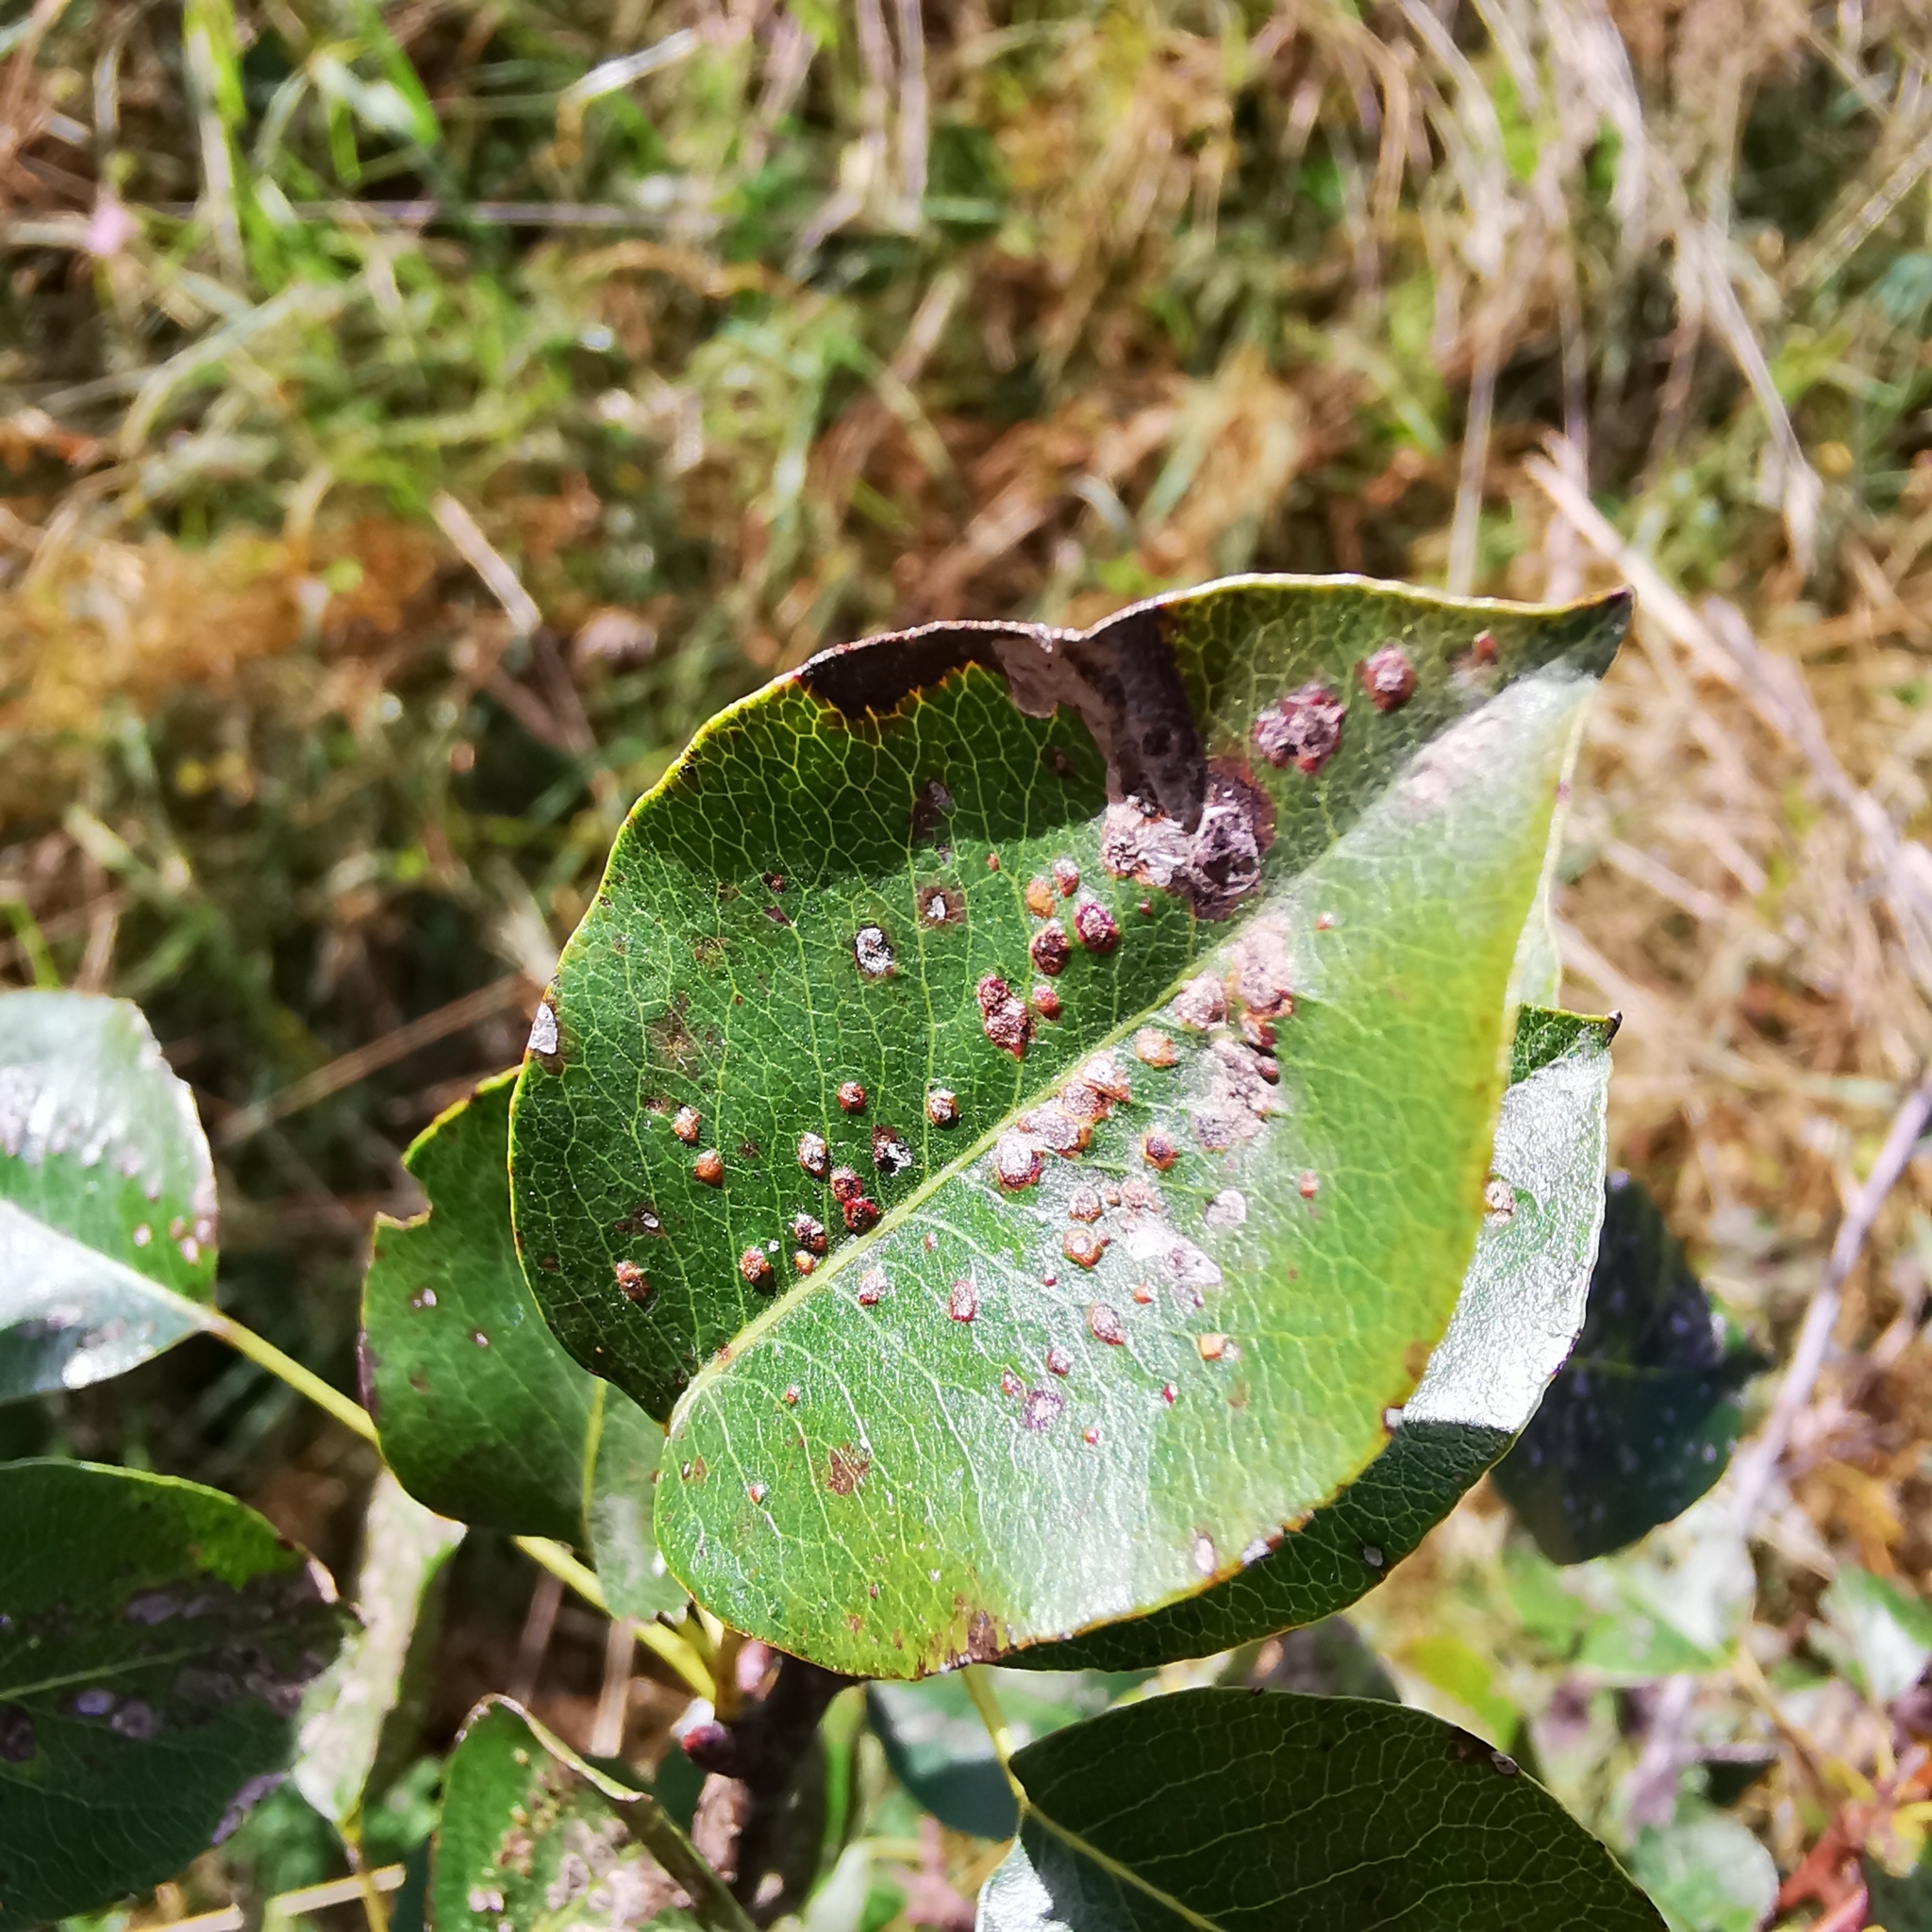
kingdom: Fungi
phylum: Basidiomycota
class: Pucciniomycetes
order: Pucciniales
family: Gymnosporangiaceae
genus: Gymnosporangium
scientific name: Gymnosporangium sabinae
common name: Pear trellis rust fungus
